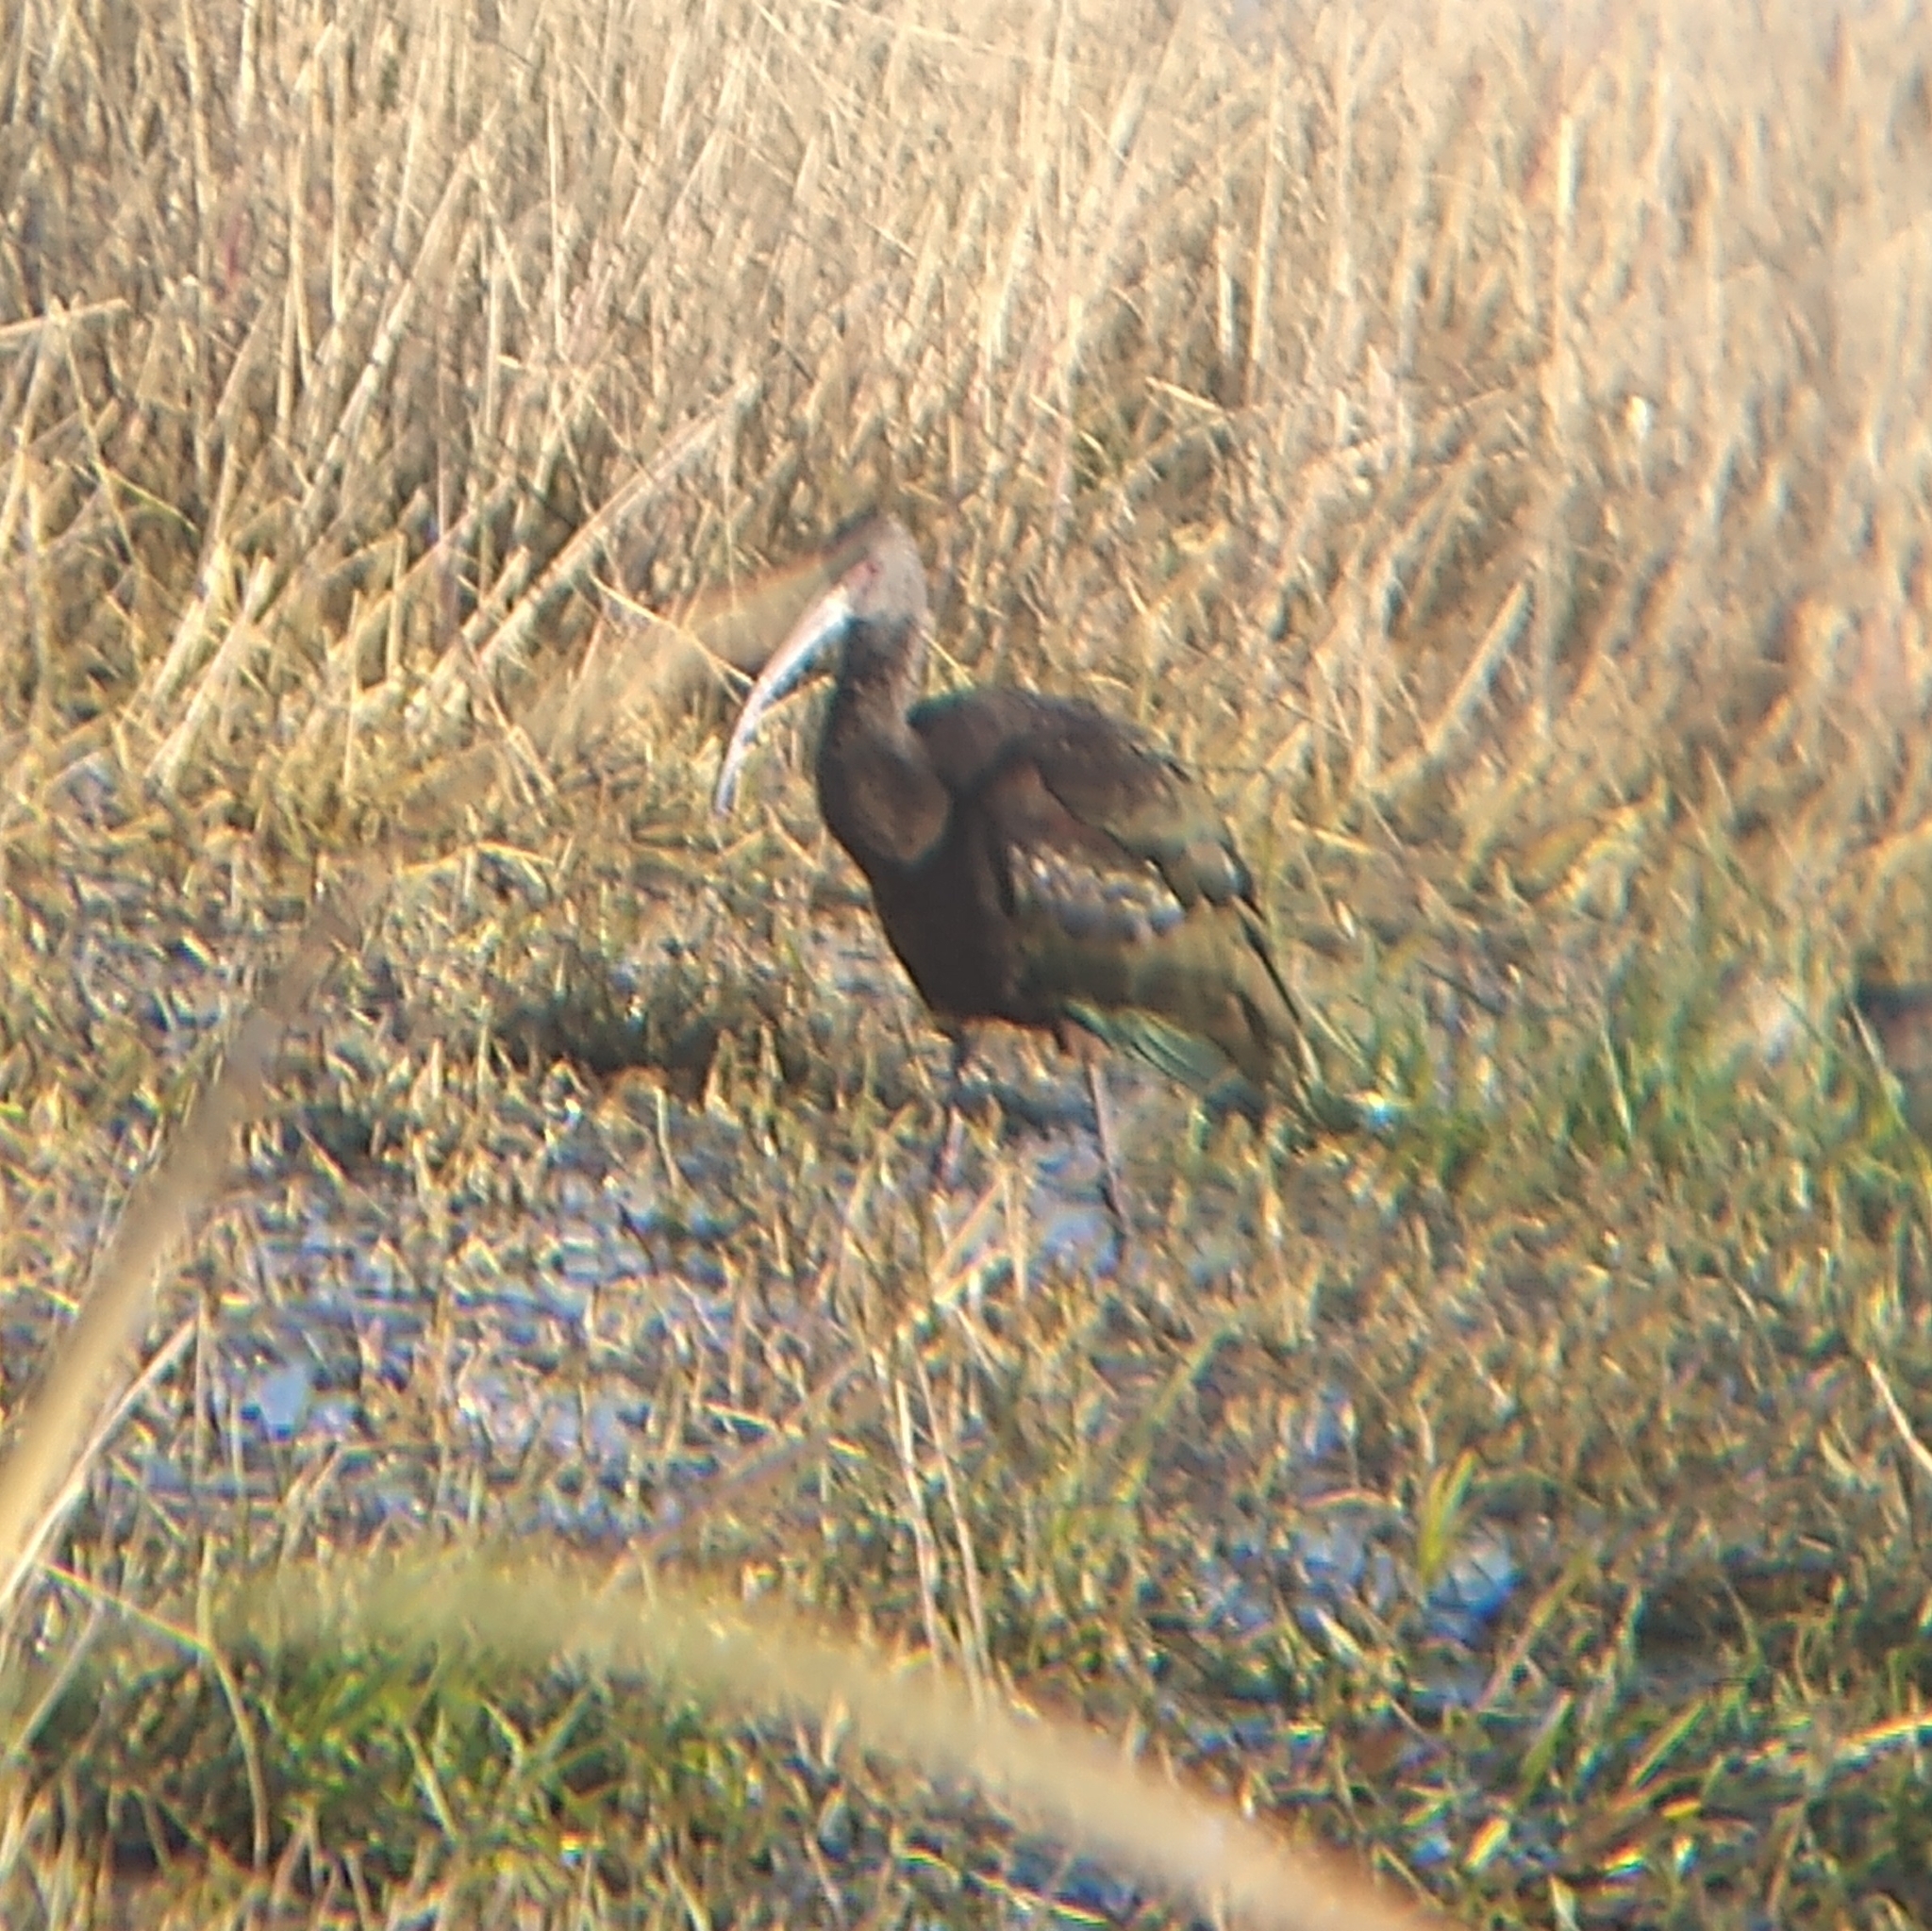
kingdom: Animalia
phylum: Chordata
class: Aves
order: Pelecaniformes
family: Threskiornithidae
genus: Plegadis
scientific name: Plegadis chihi
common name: White-faced ibis
